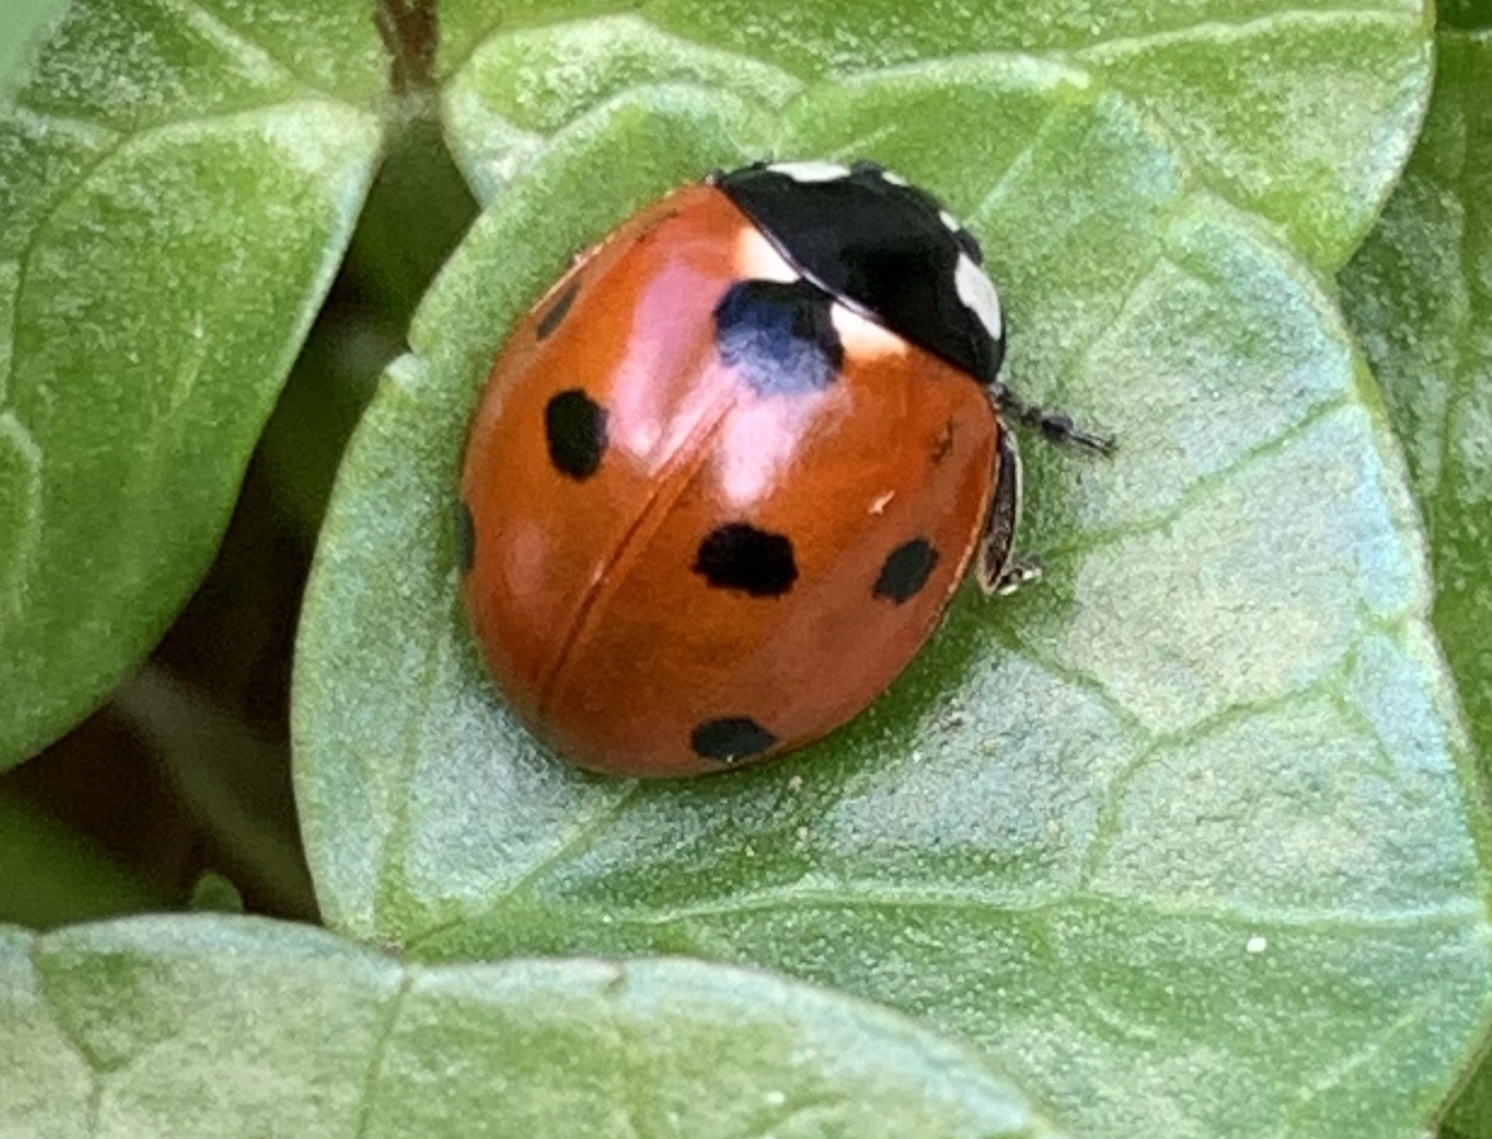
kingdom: Animalia
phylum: Arthropoda
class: Insecta
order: Coleoptera
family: Coccinellidae
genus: Coccinella
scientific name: Coccinella septempunctata
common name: Sevenspotted lady beetle
